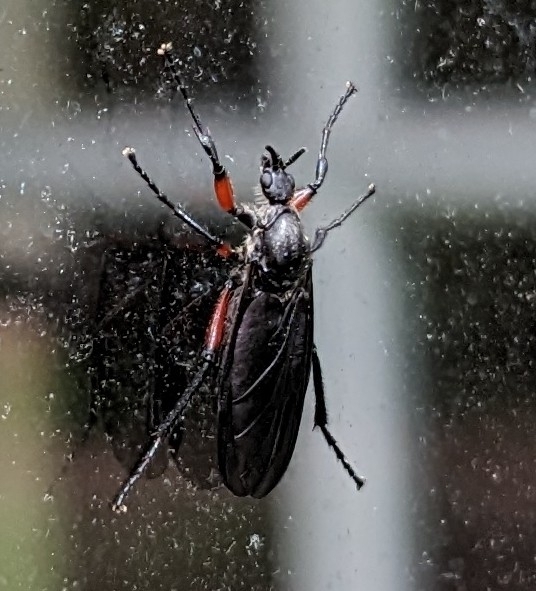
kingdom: Animalia
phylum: Arthropoda
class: Insecta
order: Diptera
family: Bibionidae
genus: Bibio
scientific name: Bibio femoratus
